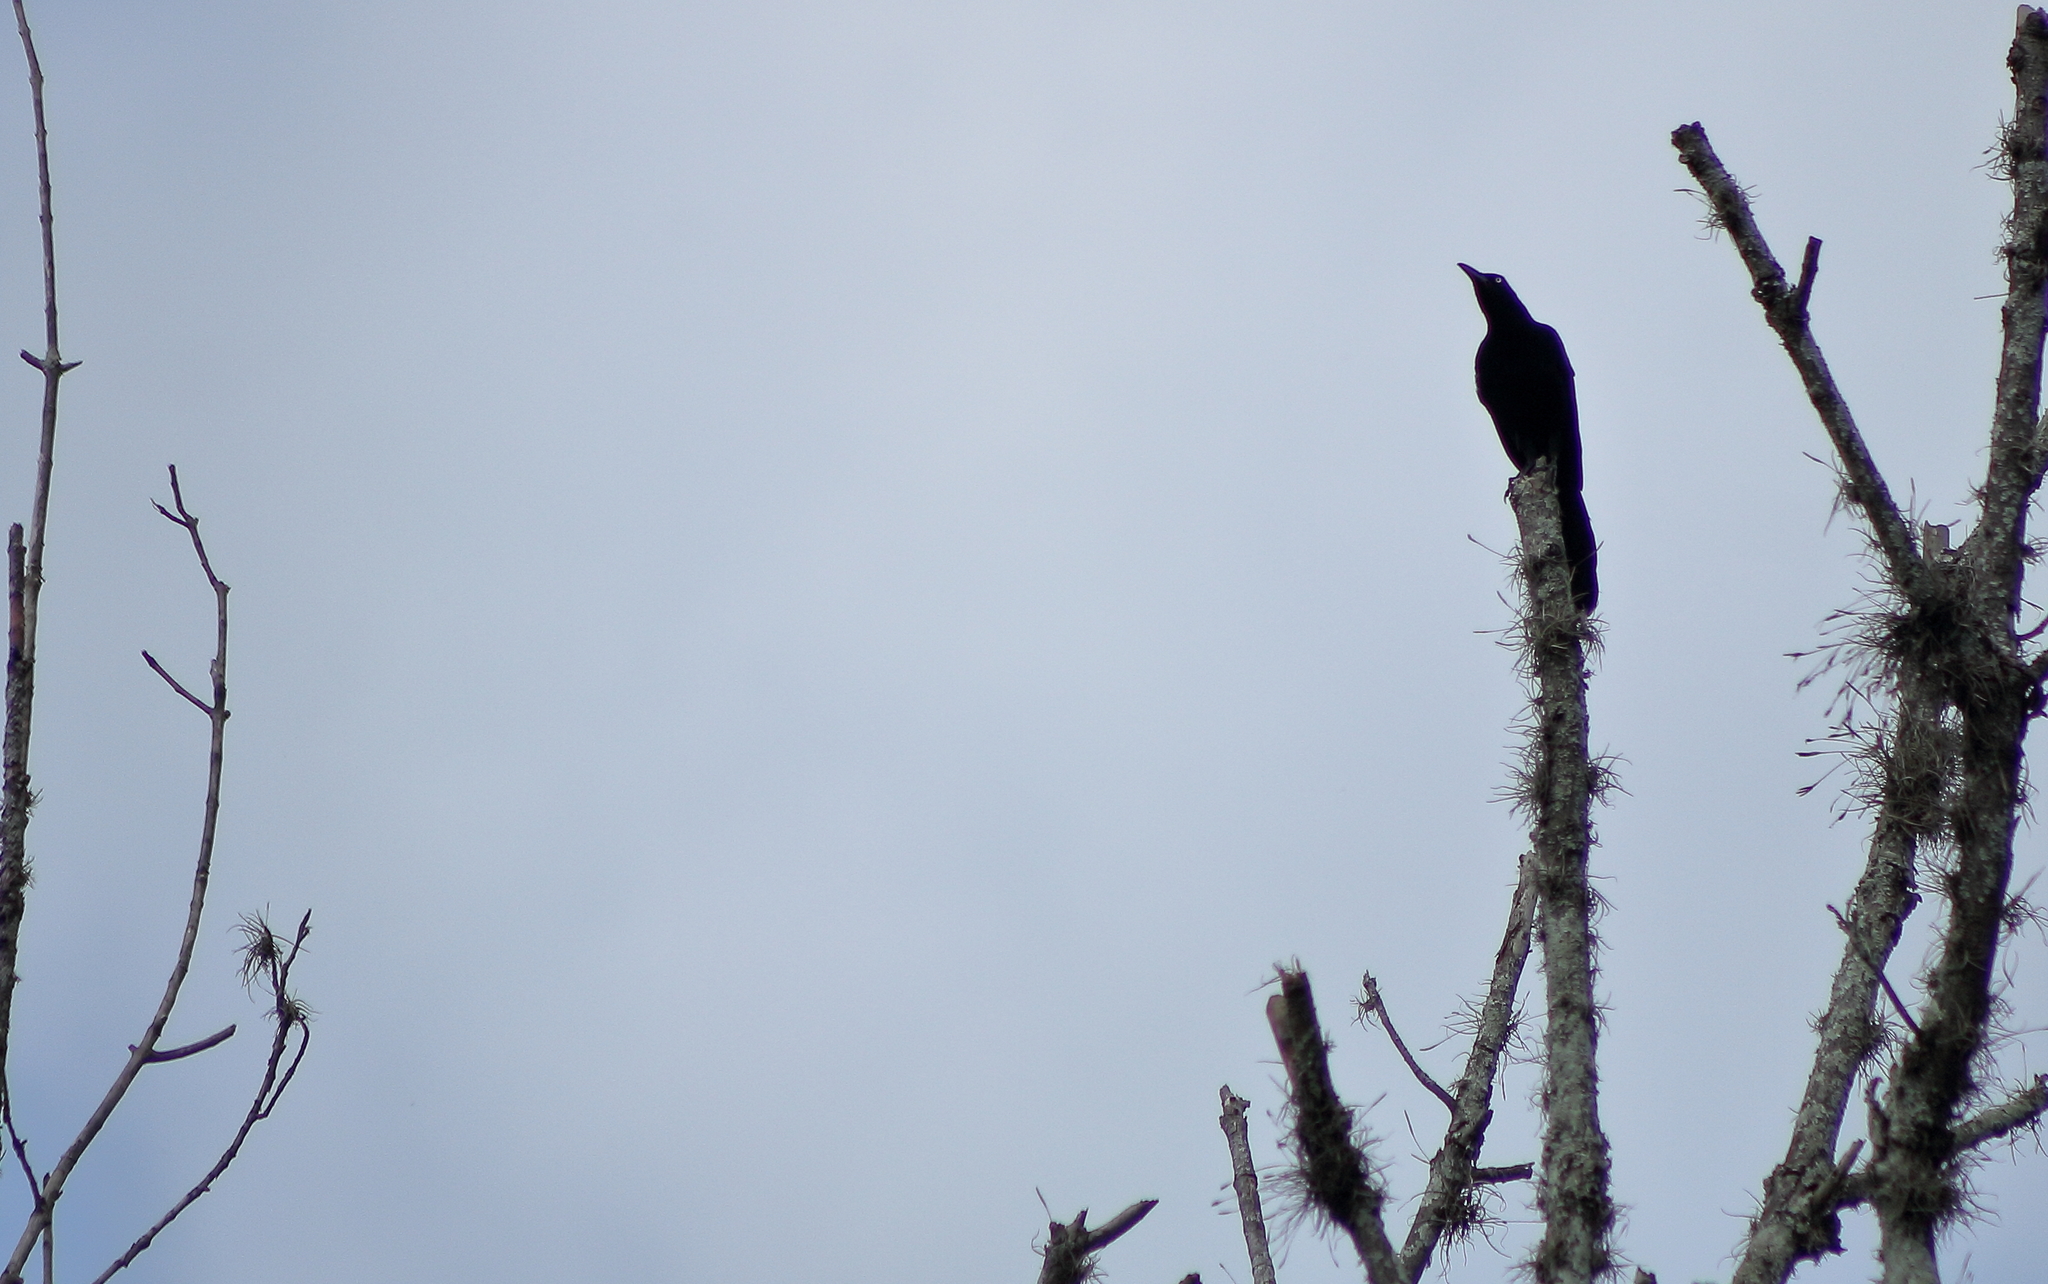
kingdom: Animalia
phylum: Chordata
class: Aves
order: Passeriformes
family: Icteridae
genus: Quiscalus
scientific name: Quiscalus mexicanus
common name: Great-tailed grackle
